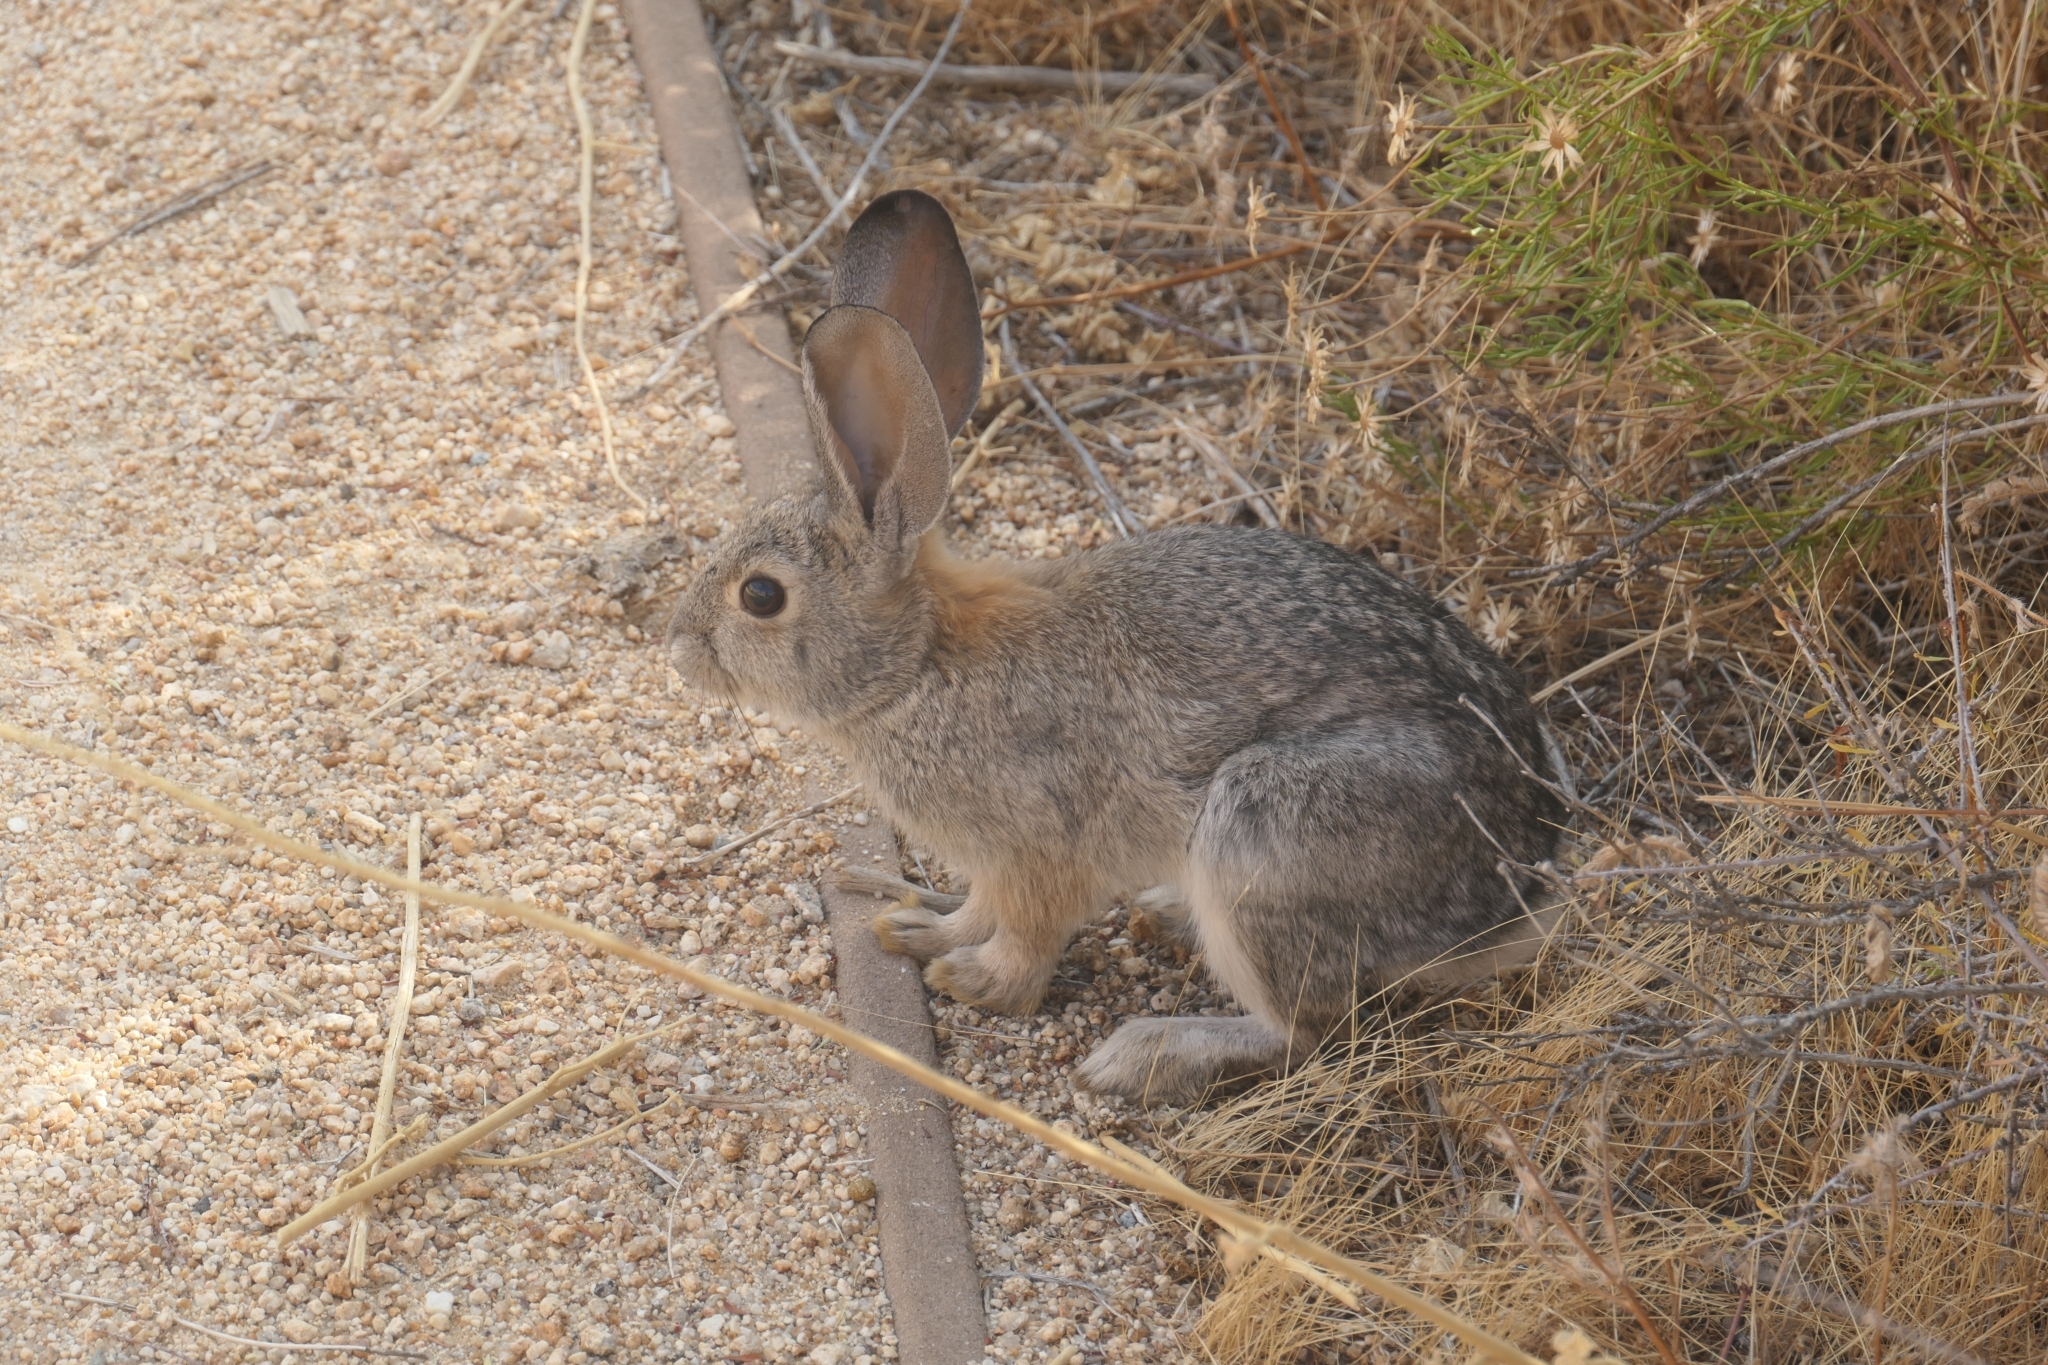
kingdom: Animalia
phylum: Chordata
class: Mammalia
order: Lagomorpha
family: Leporidae
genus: Sylvilagus
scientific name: Sylvilagus audubonii
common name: Desert cottontail
